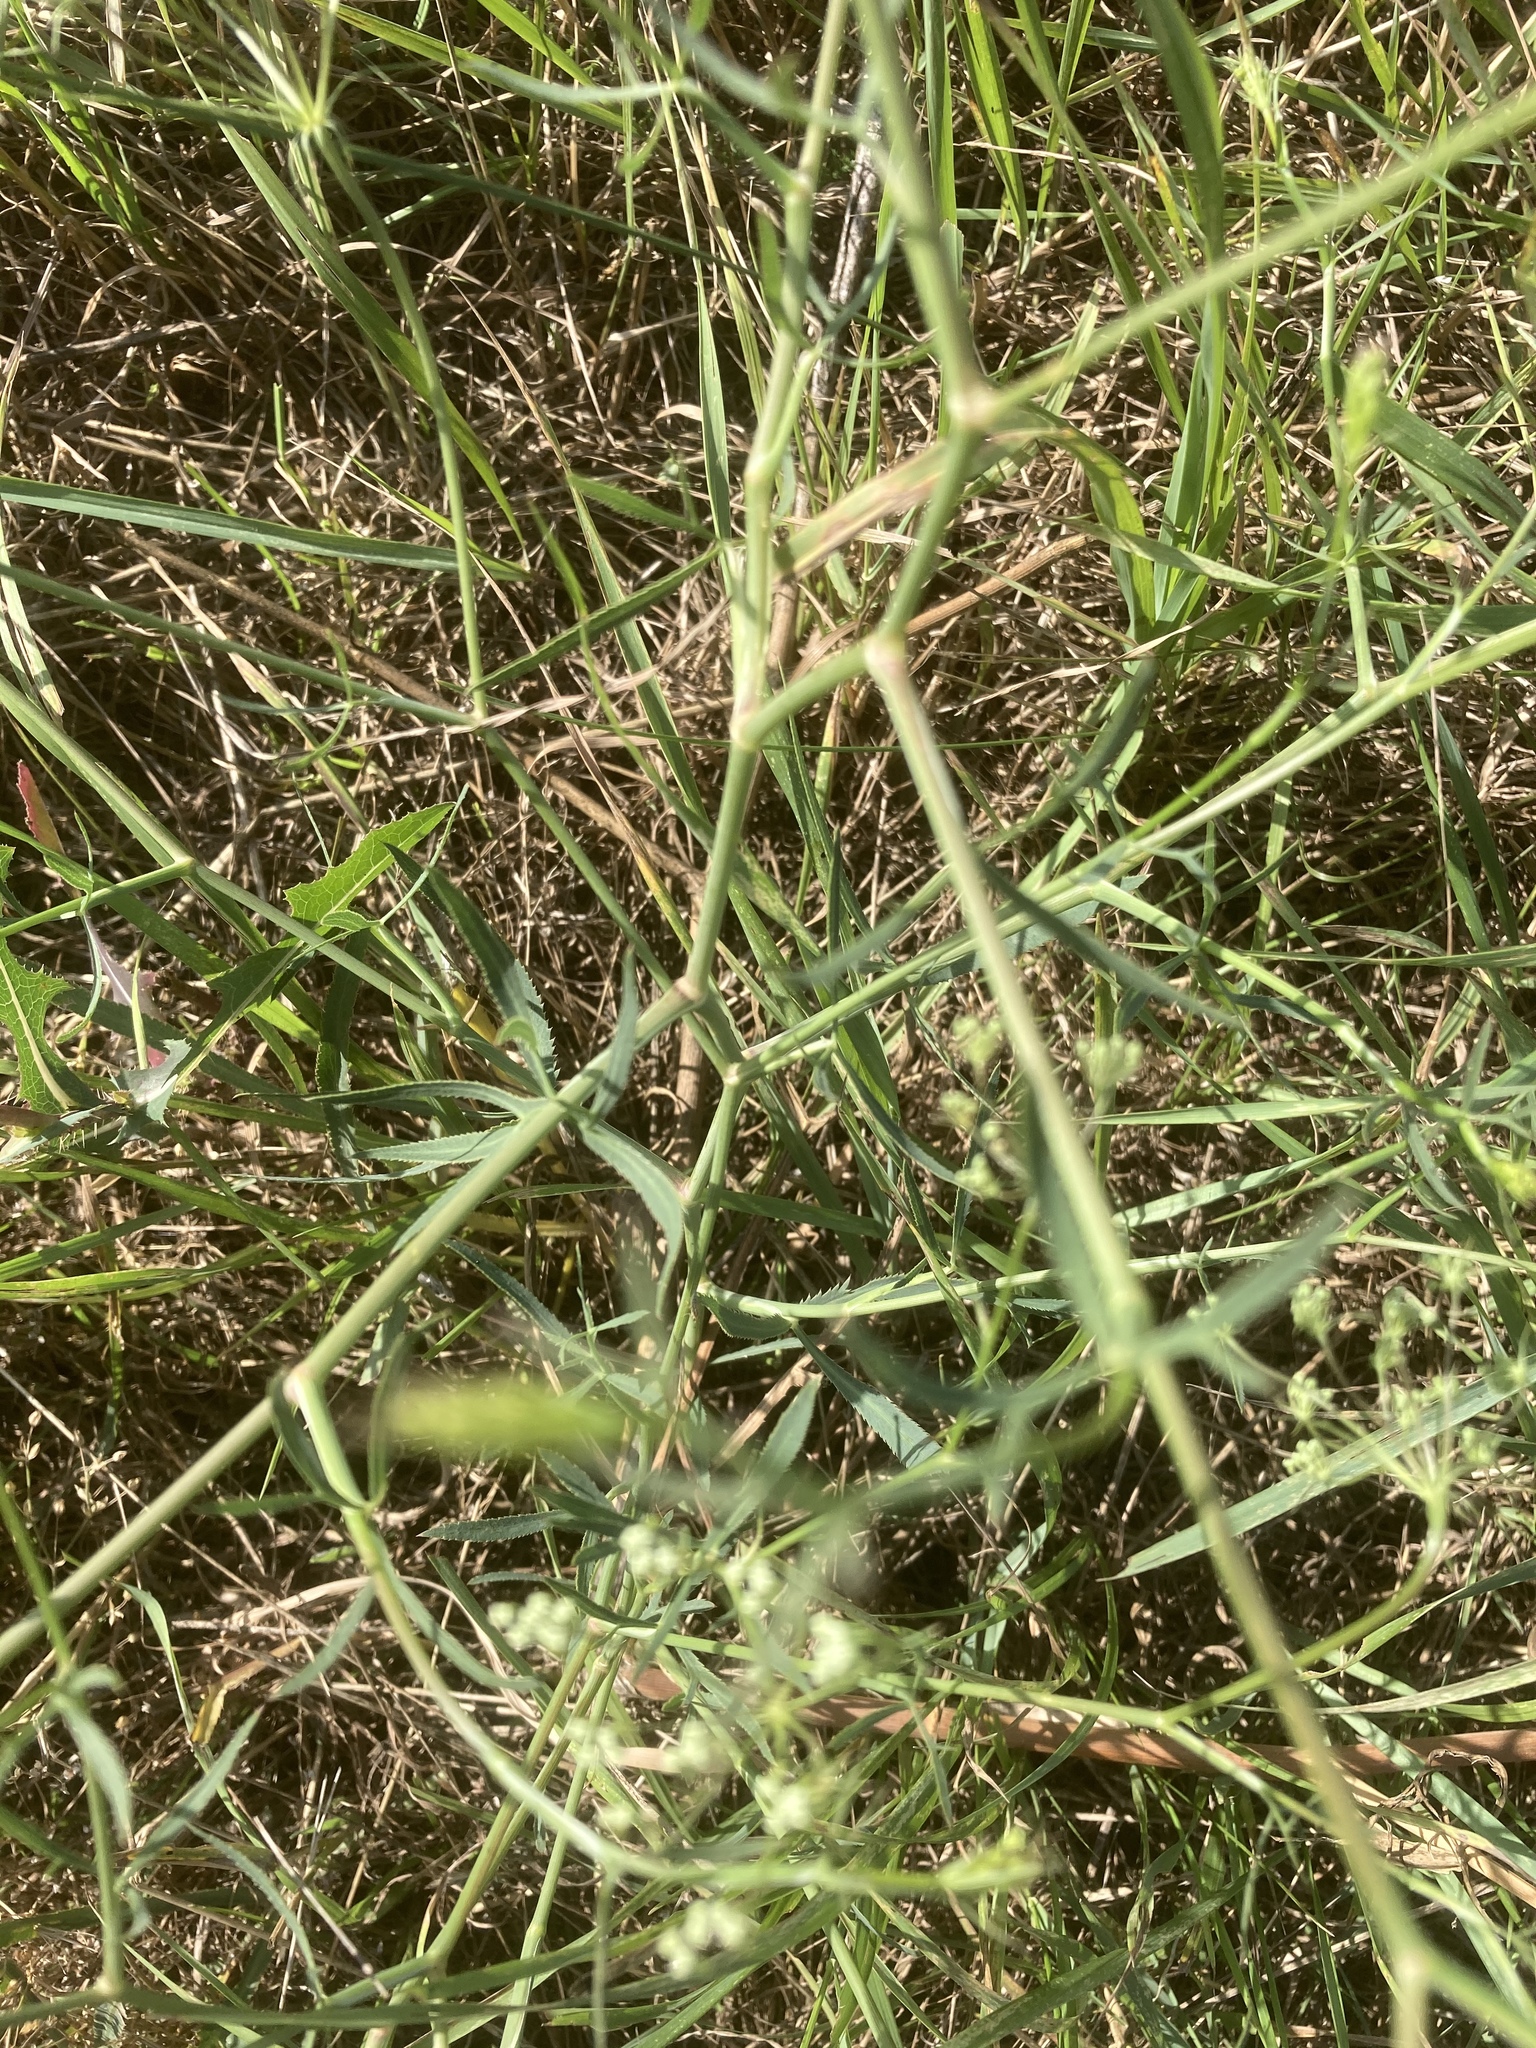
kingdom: Plantae
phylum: Tracheophyta
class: Magnoliopsida
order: Apiales
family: Apiaceae
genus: Falcaria
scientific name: Falcaria vulgaris
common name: Longleaf
